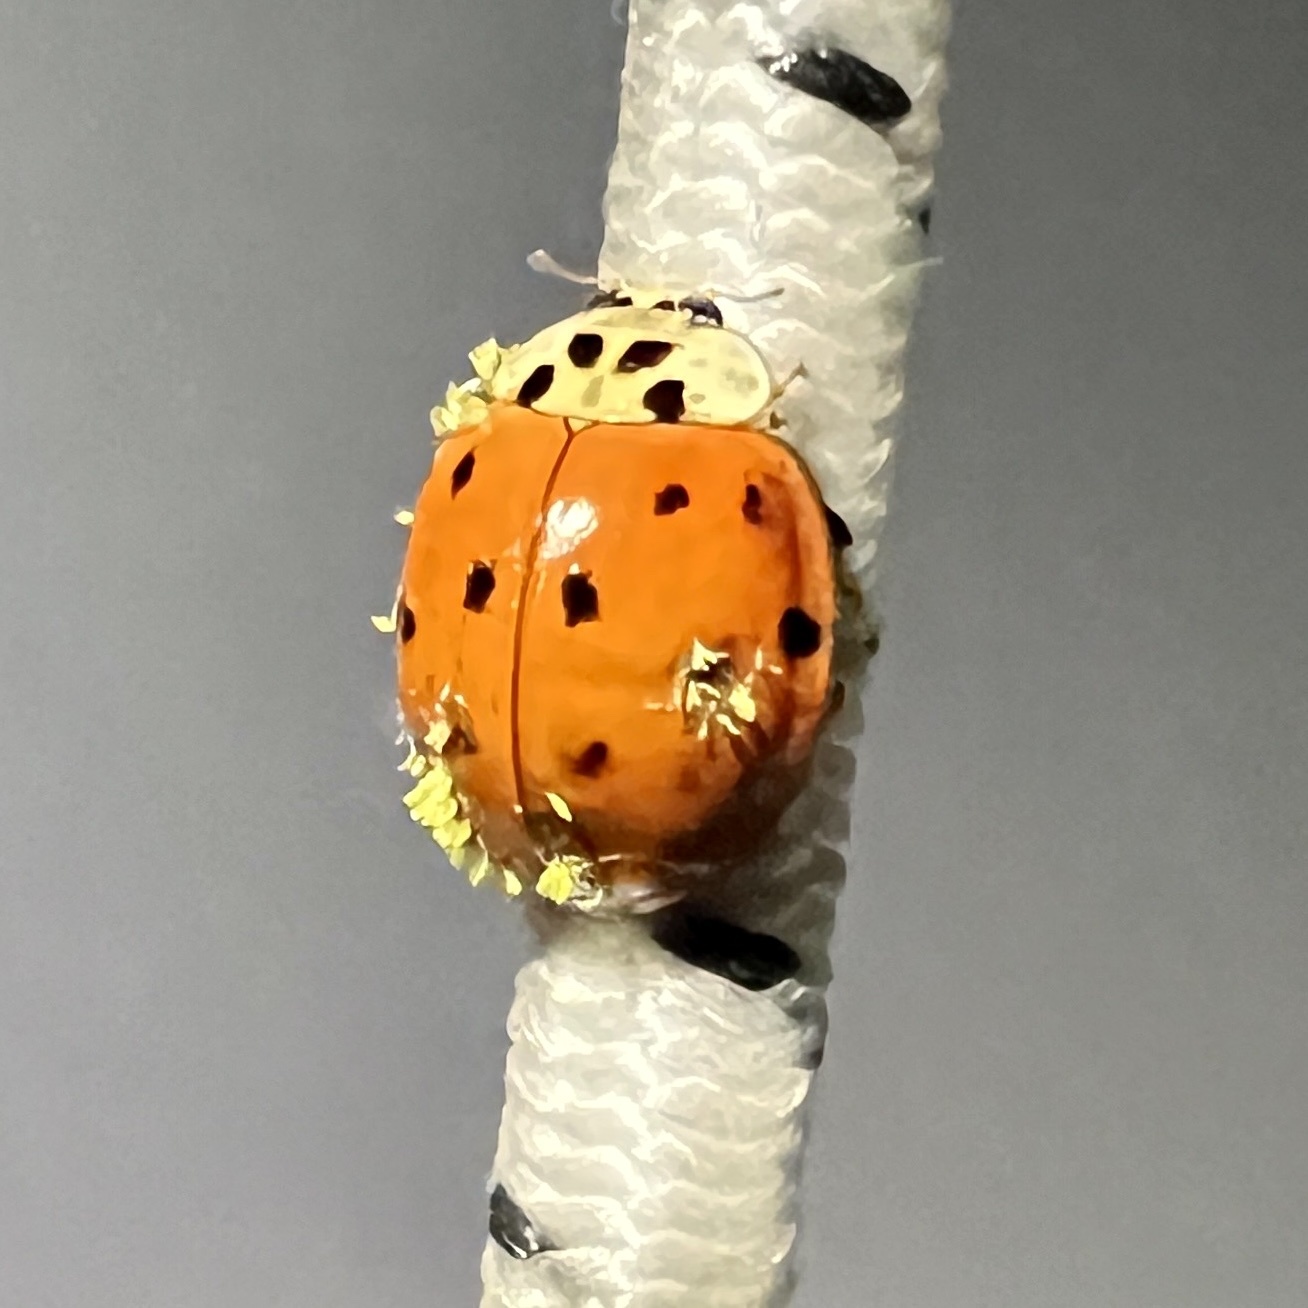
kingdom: Fungi
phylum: Ascomycota
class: Laboulbeniomycetes
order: Laboulbeniales
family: Laboulbeniaceae
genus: Hesperomyces
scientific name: Hesperomyces harmoniae
